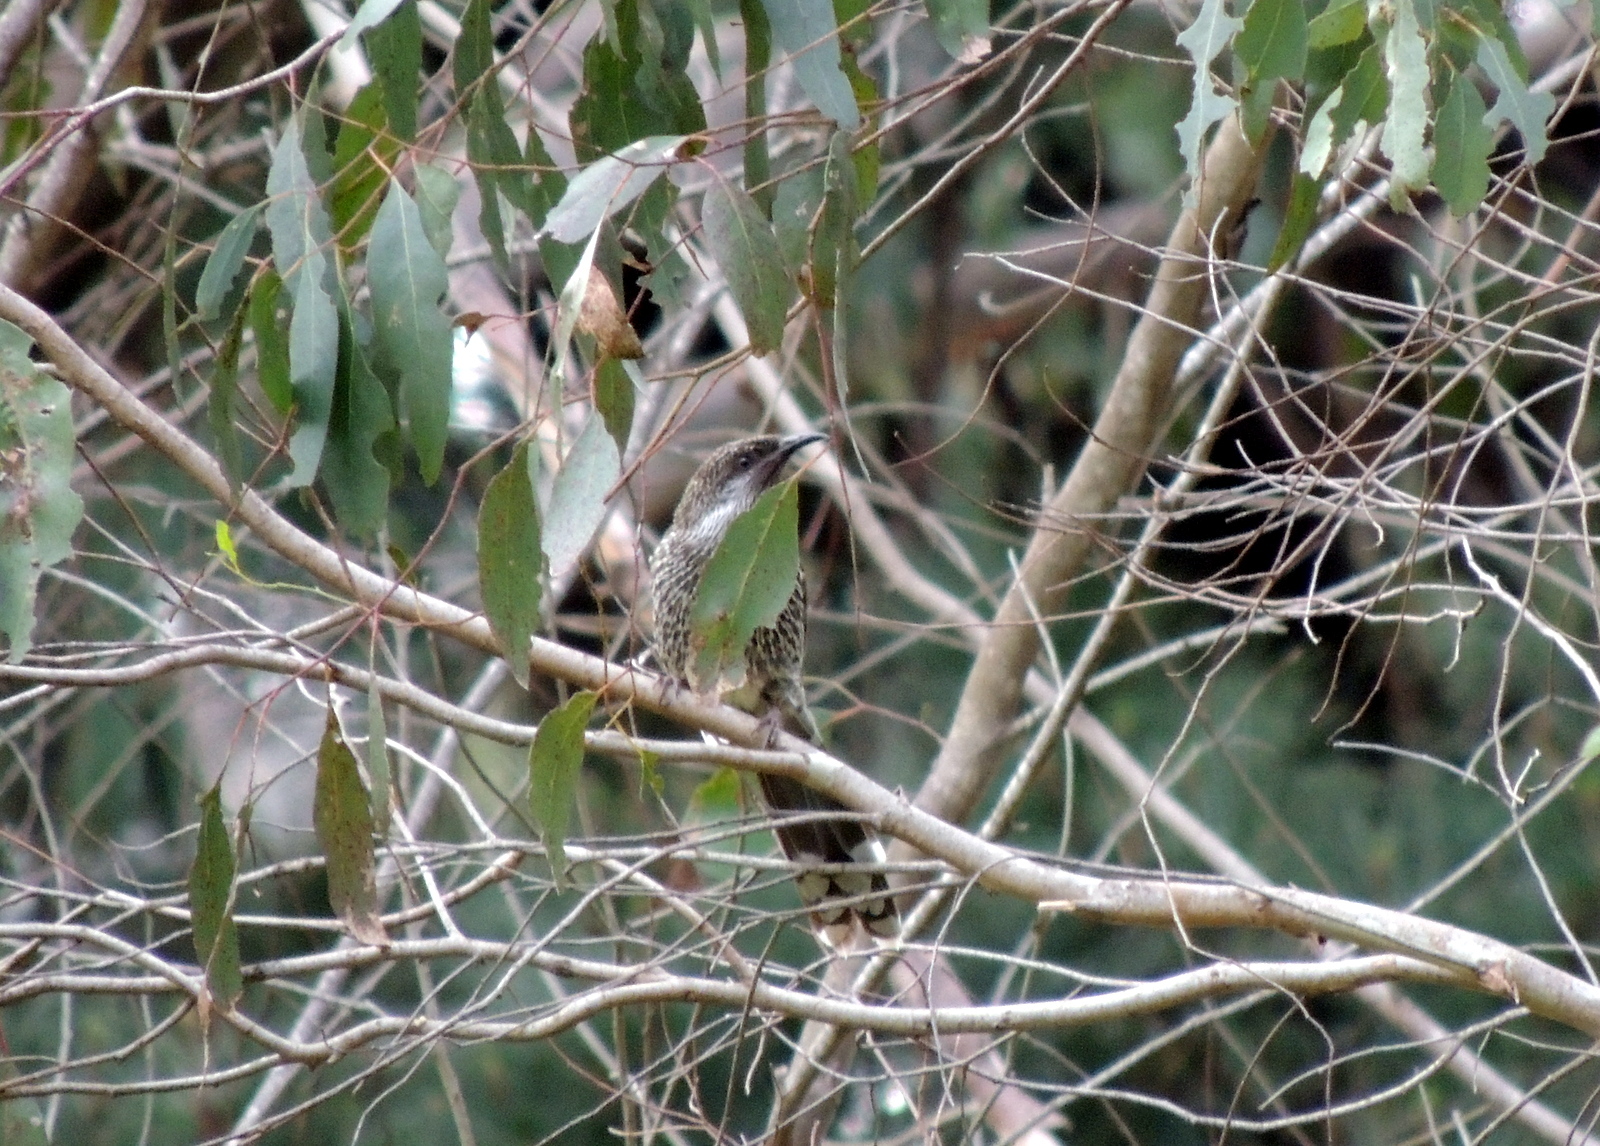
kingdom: Animalia
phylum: Chordata
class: Aves
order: Passeriformes
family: Meliphagidae
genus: Anthochaera
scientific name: Anthochaera chrysoptera
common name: Little wattlebird
